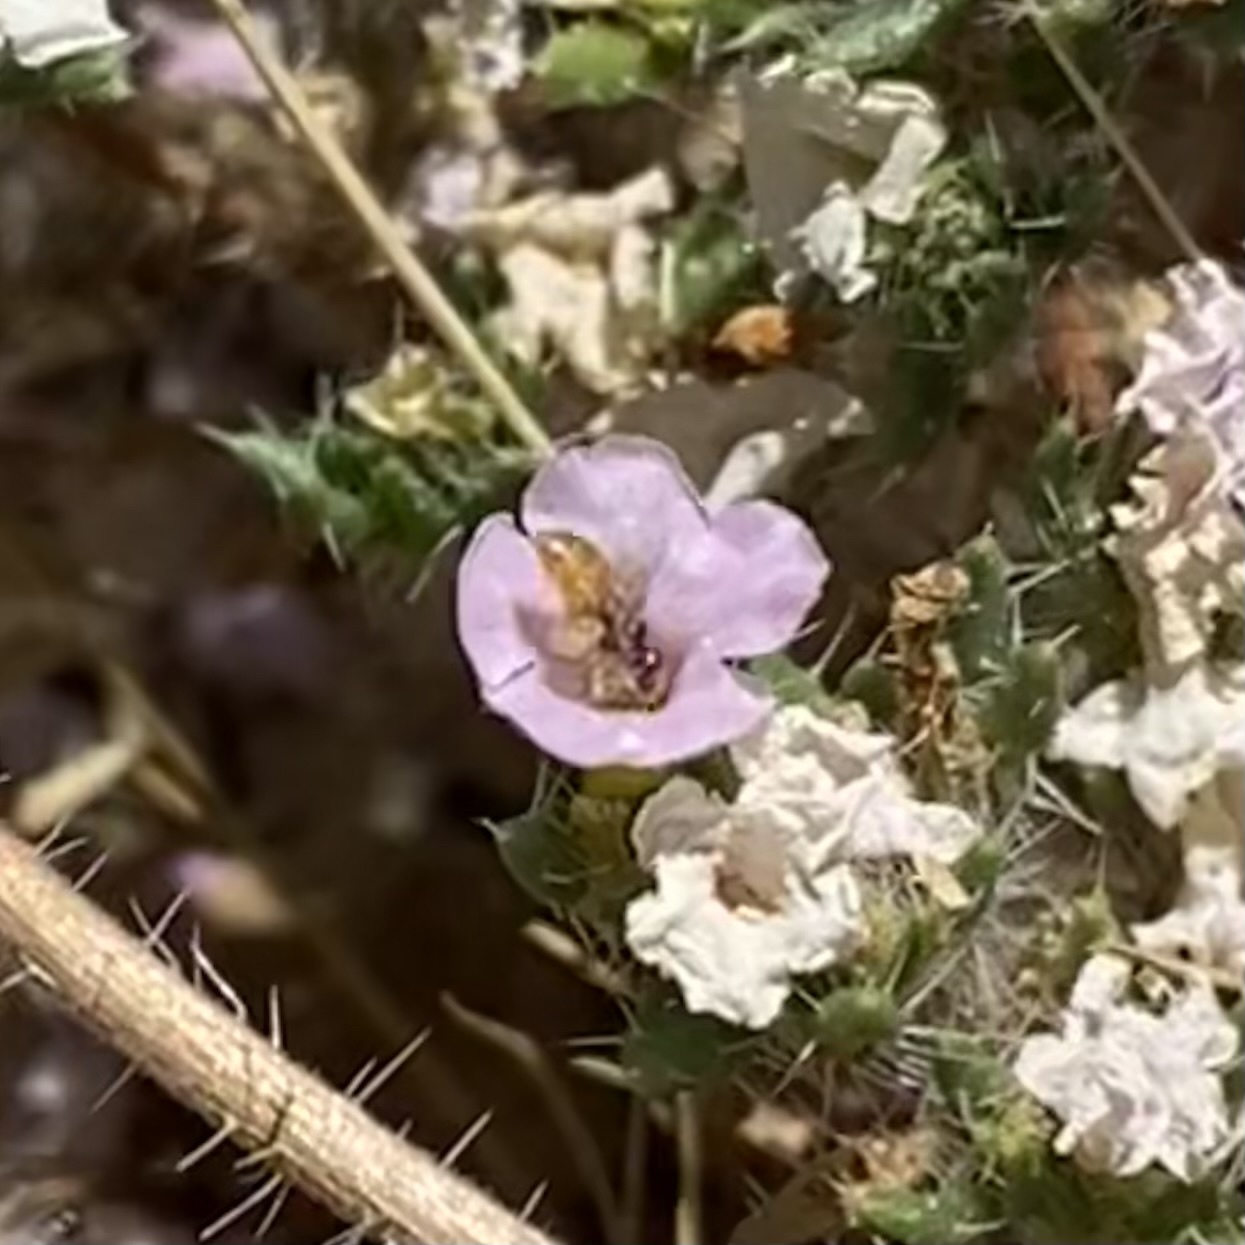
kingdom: Animalia
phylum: Arthropoda
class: Insecta
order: Hymenoptera
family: Andrenidae
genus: Perdita
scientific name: Perdita
